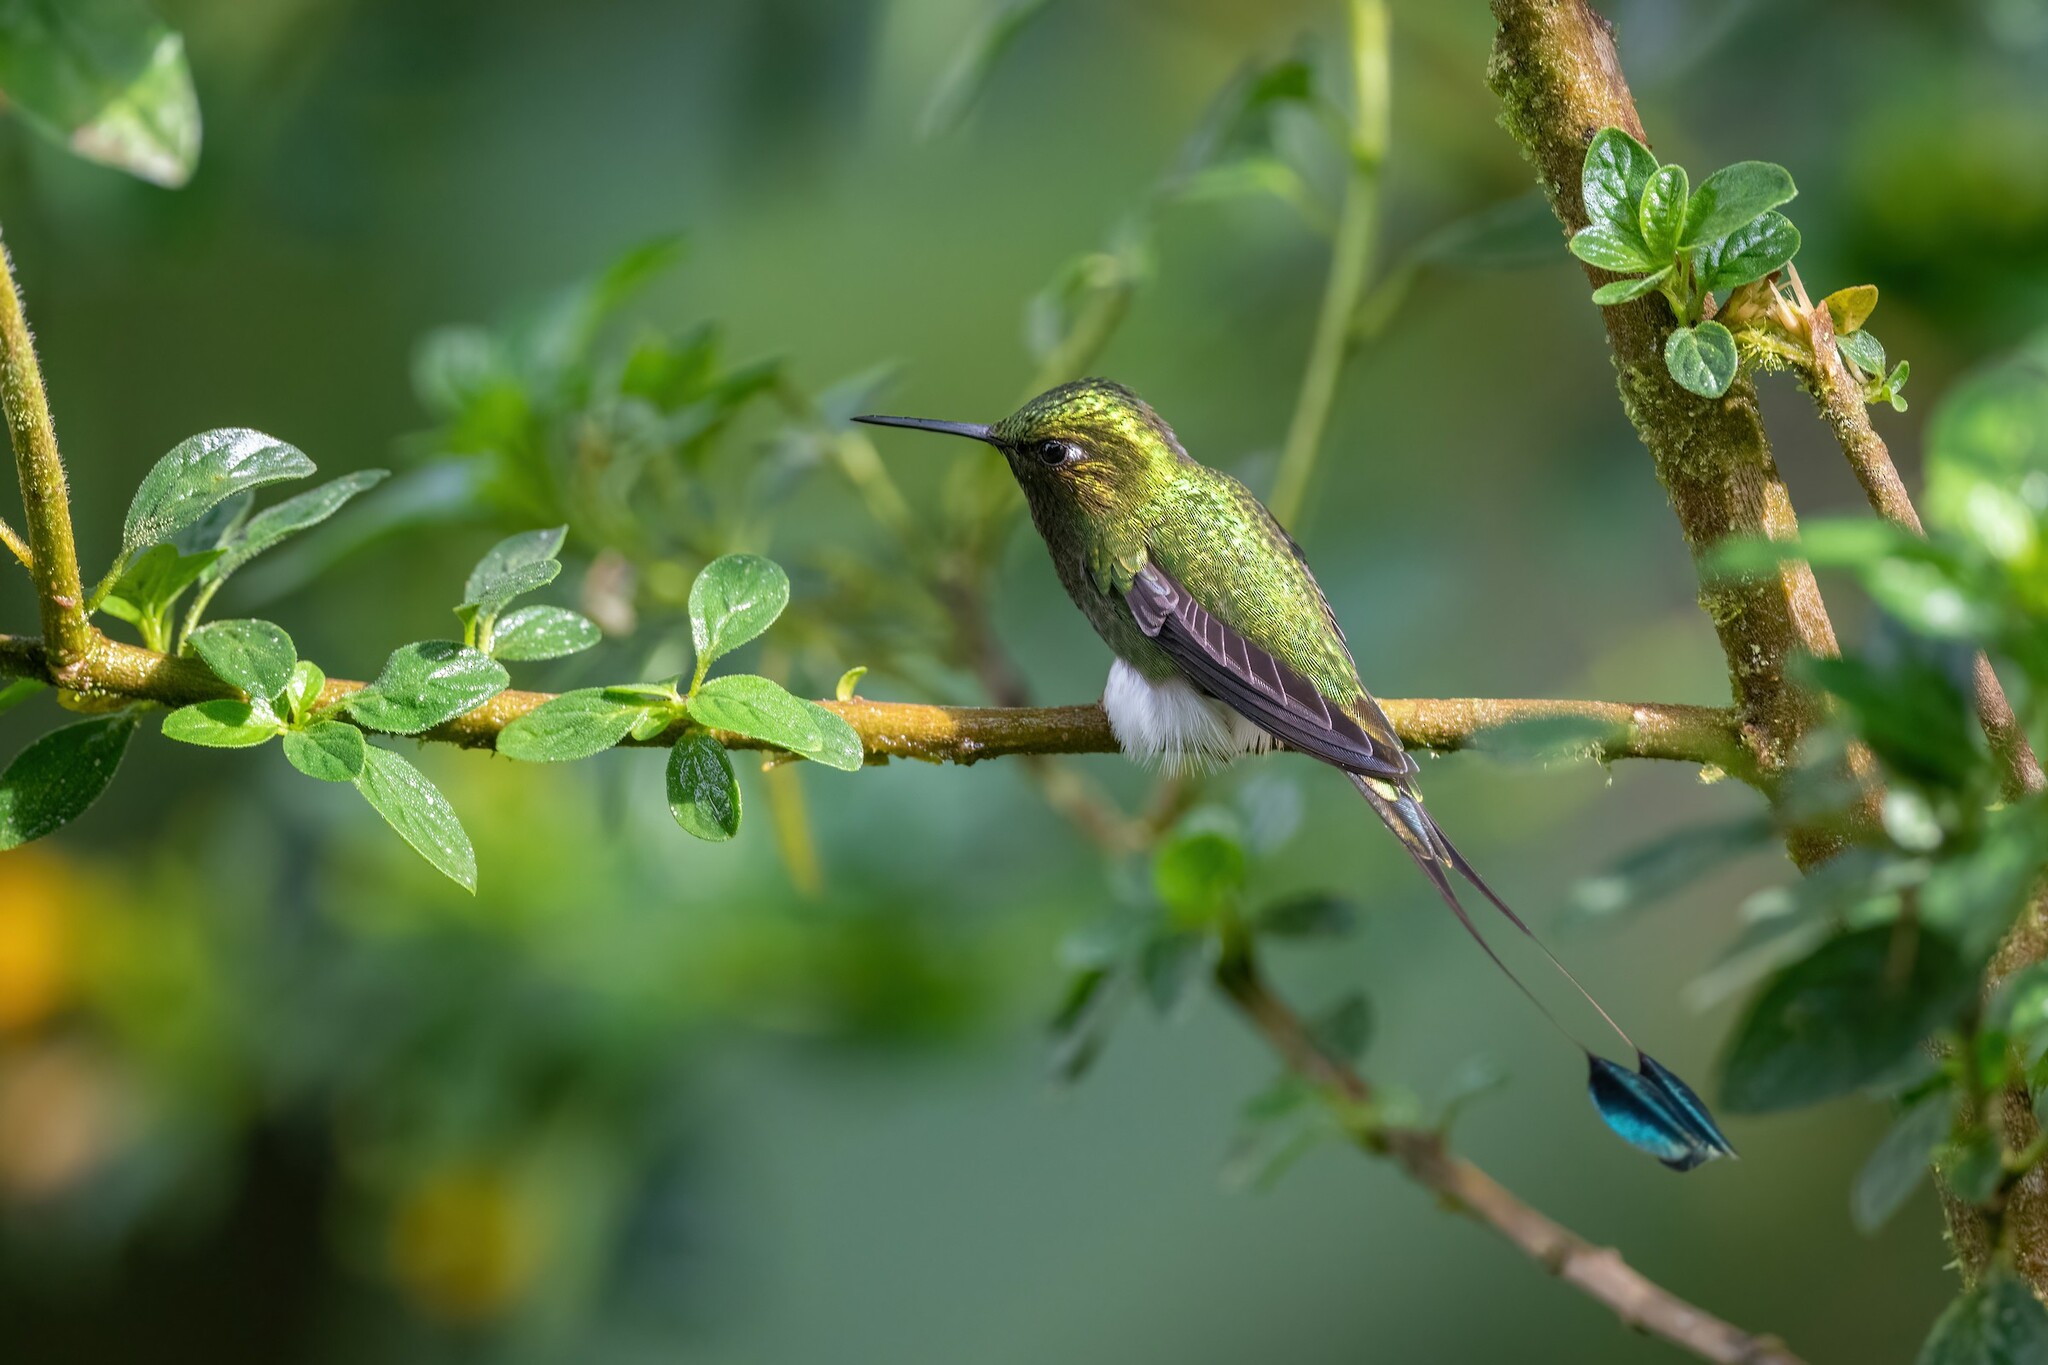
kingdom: Animalia
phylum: Chordata
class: Aves
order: Apodiformes
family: Trochilidae
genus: Ocreatus
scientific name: Ocreatus underwoodii
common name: Booted racket-tail
